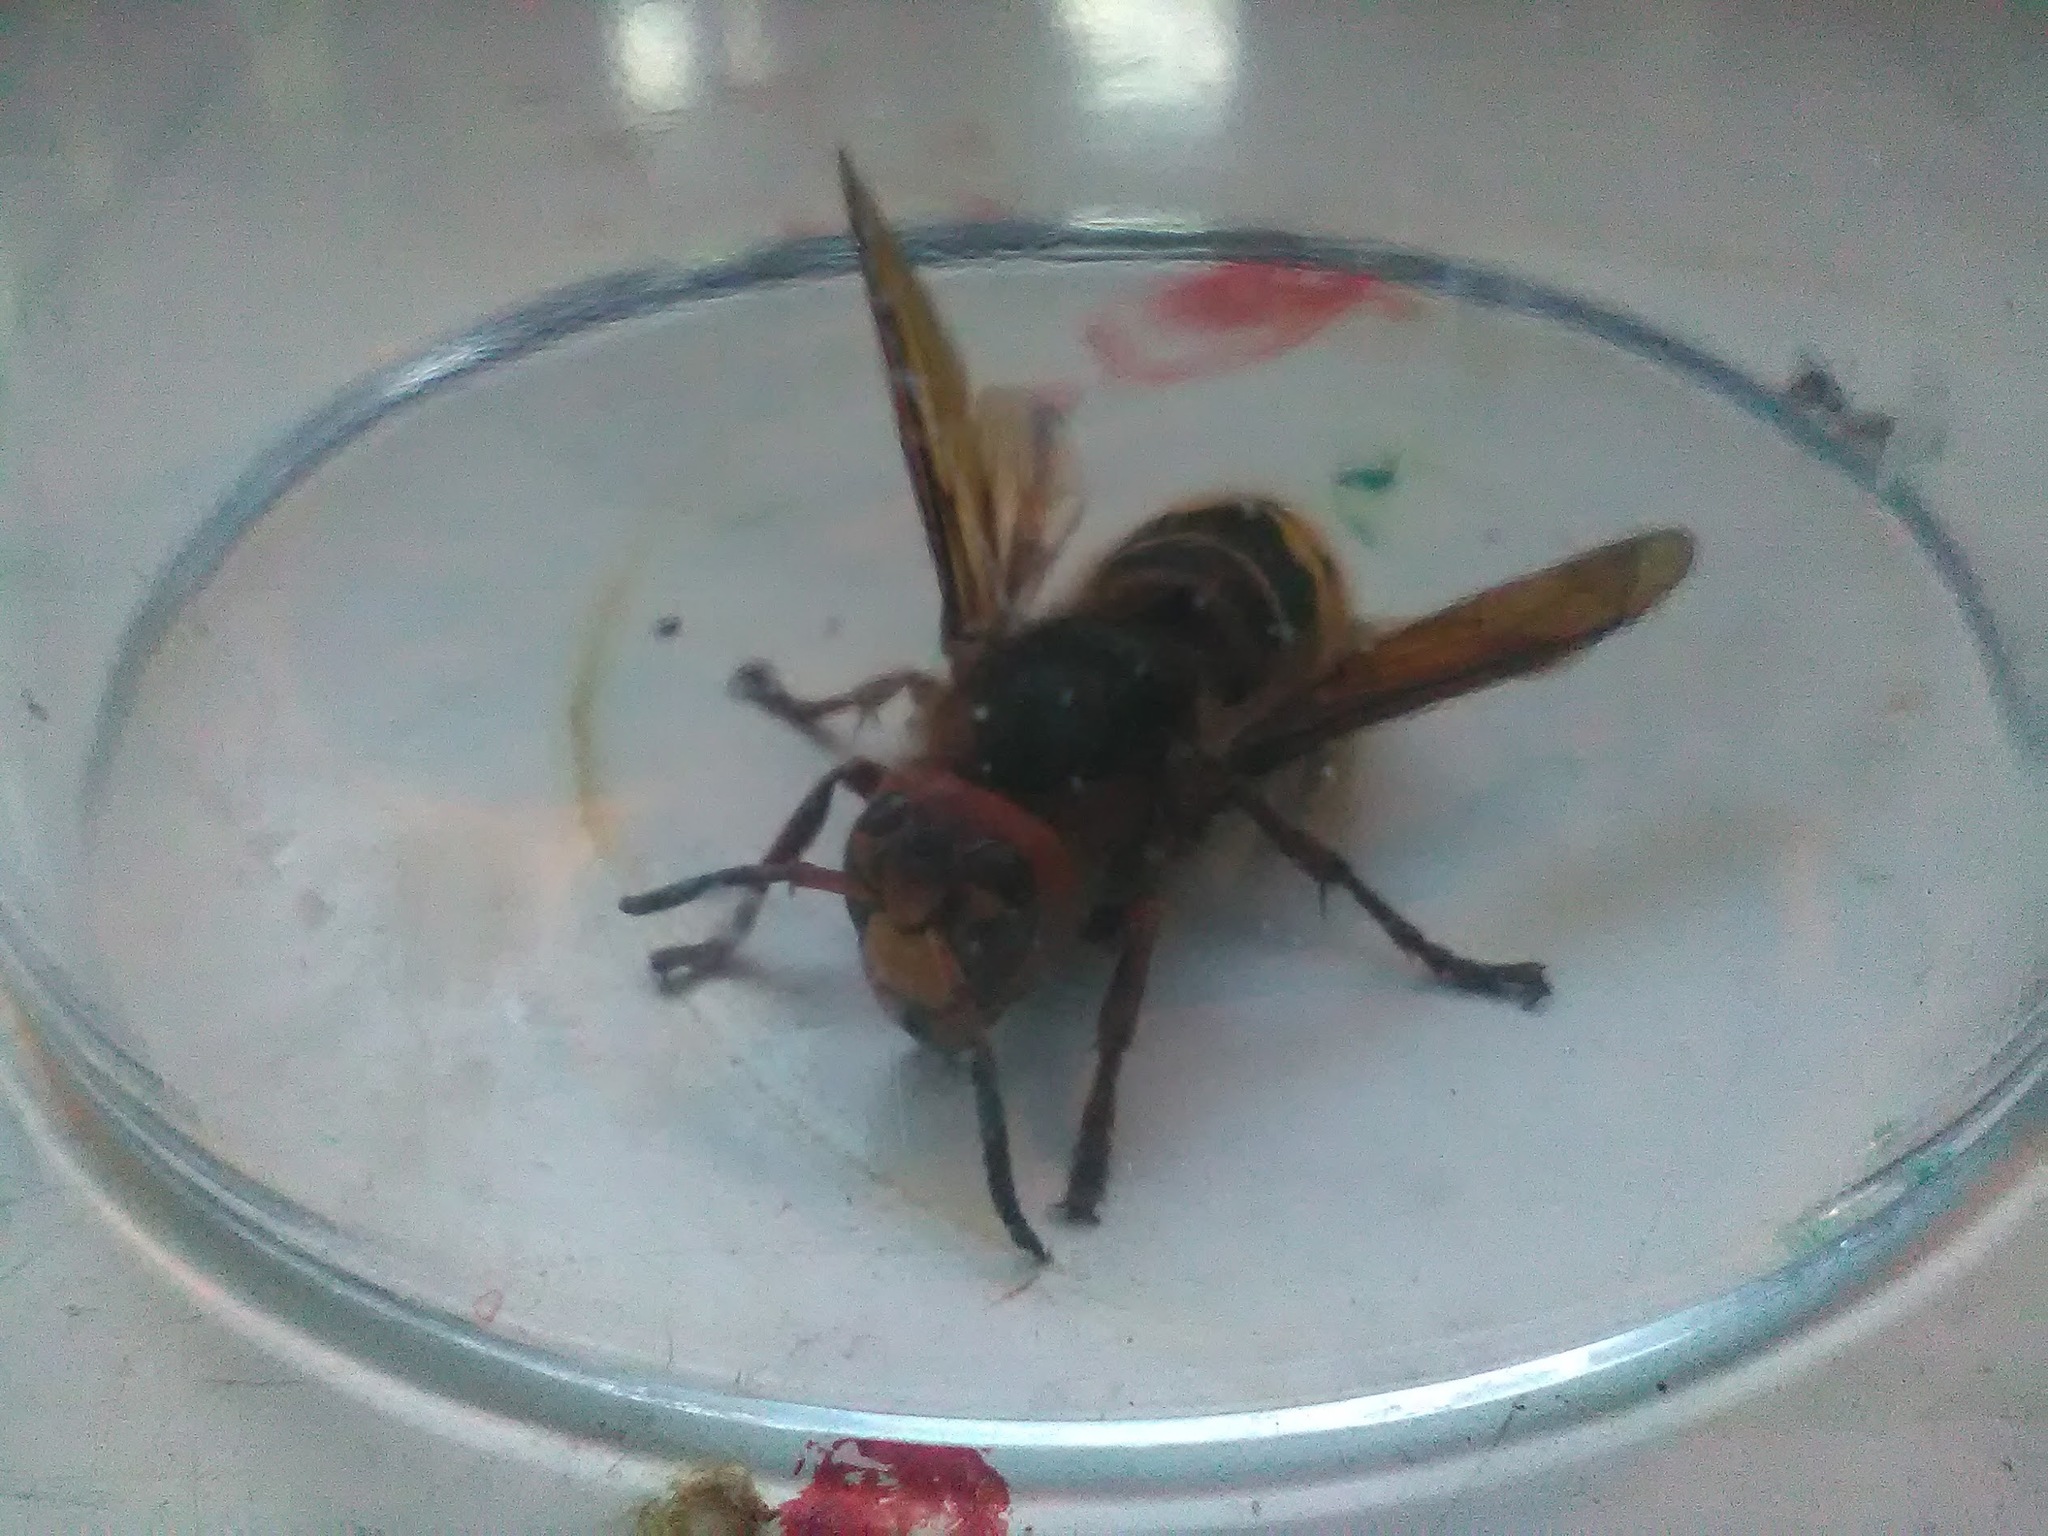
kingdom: Animalia
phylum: Arthropoda
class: Insecta
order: Hymenoptera
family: Vespidae
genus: Vespa
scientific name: Vespa crabro
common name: Hornet
